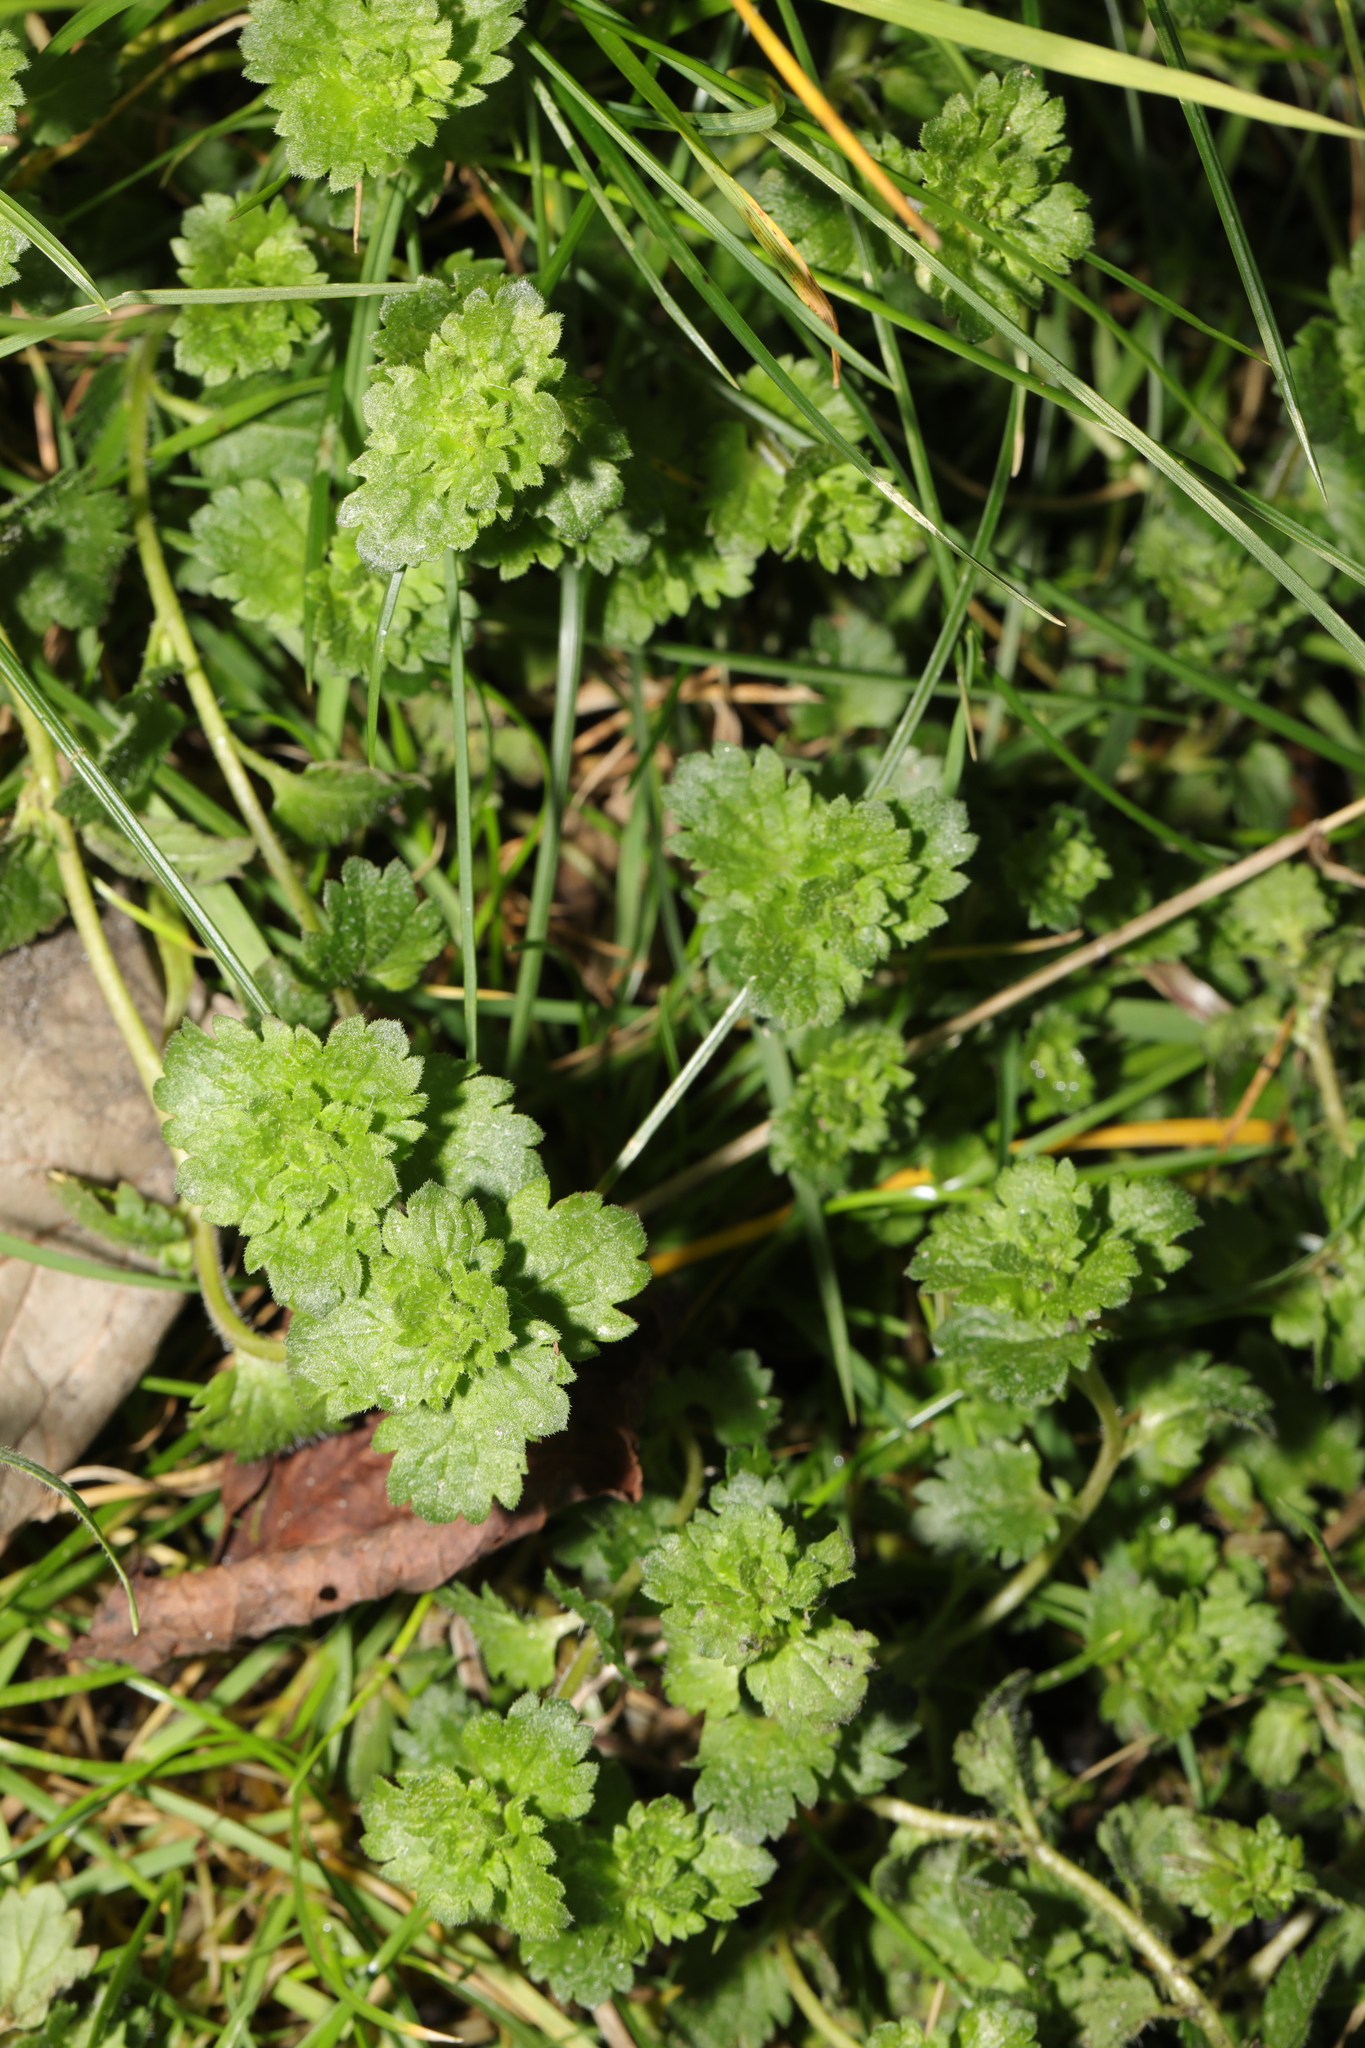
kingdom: Plantae
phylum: Tracheophyta
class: Magnoliopsida
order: Lamiales
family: Plantaginaceae
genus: Veronica
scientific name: Veronica persica
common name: Common field-speedwell
